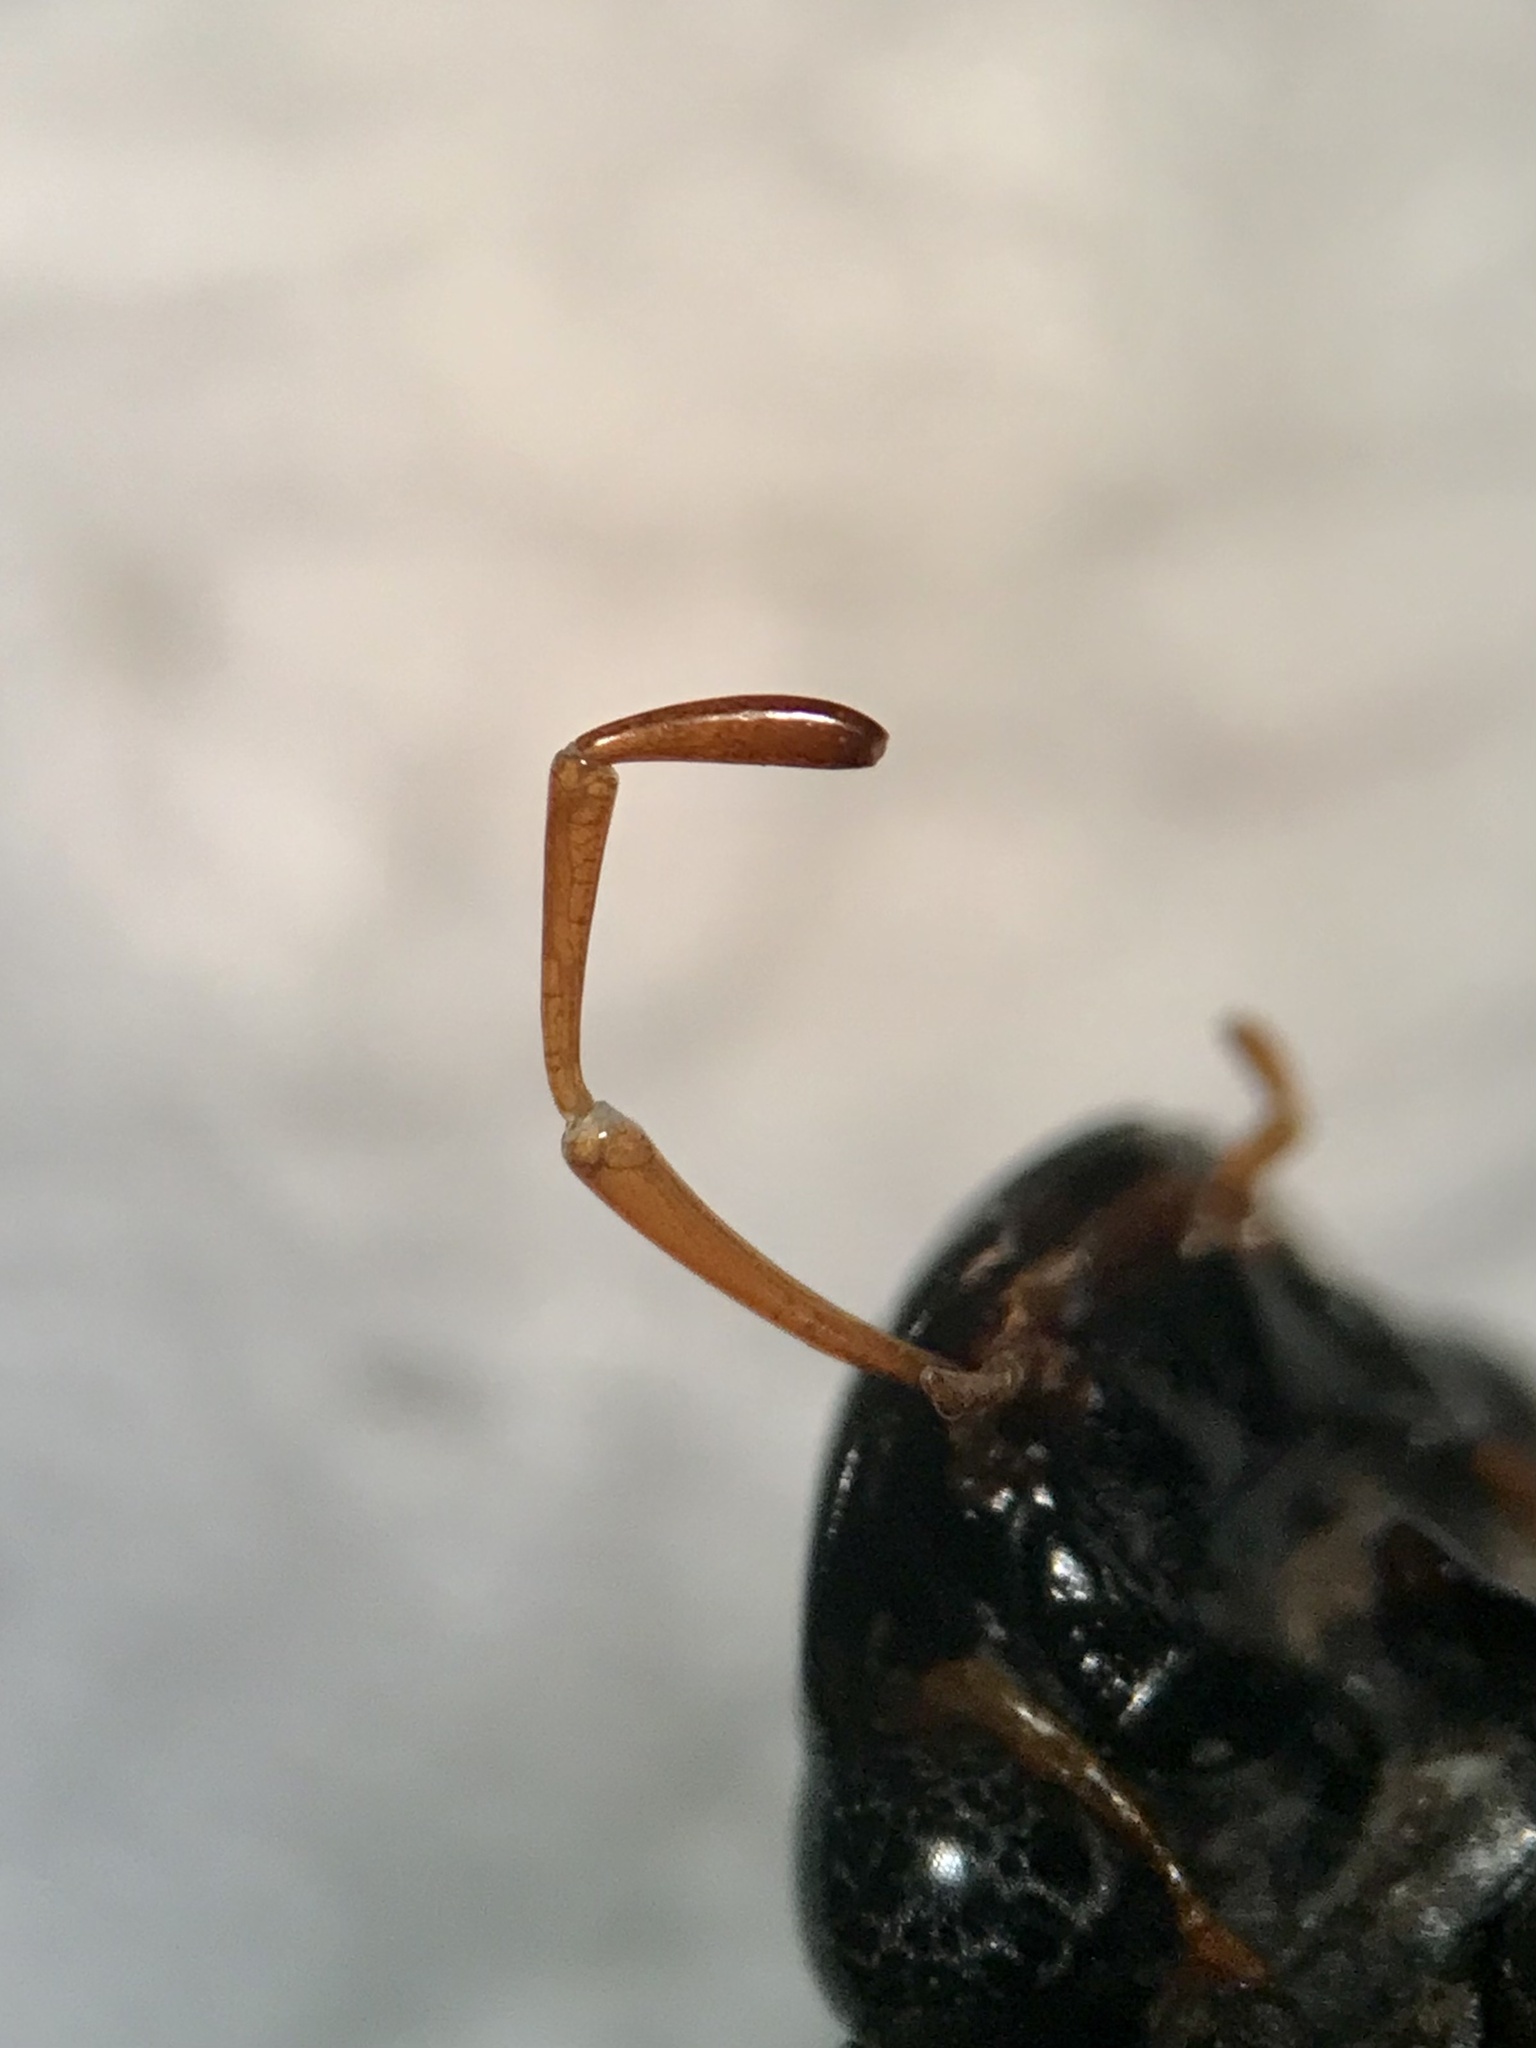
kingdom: Animalia
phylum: Arthropoda
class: Insecta
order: Coleoptera
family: Hydrophilidae
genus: Hydrochara
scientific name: Hydrochara obtusata
